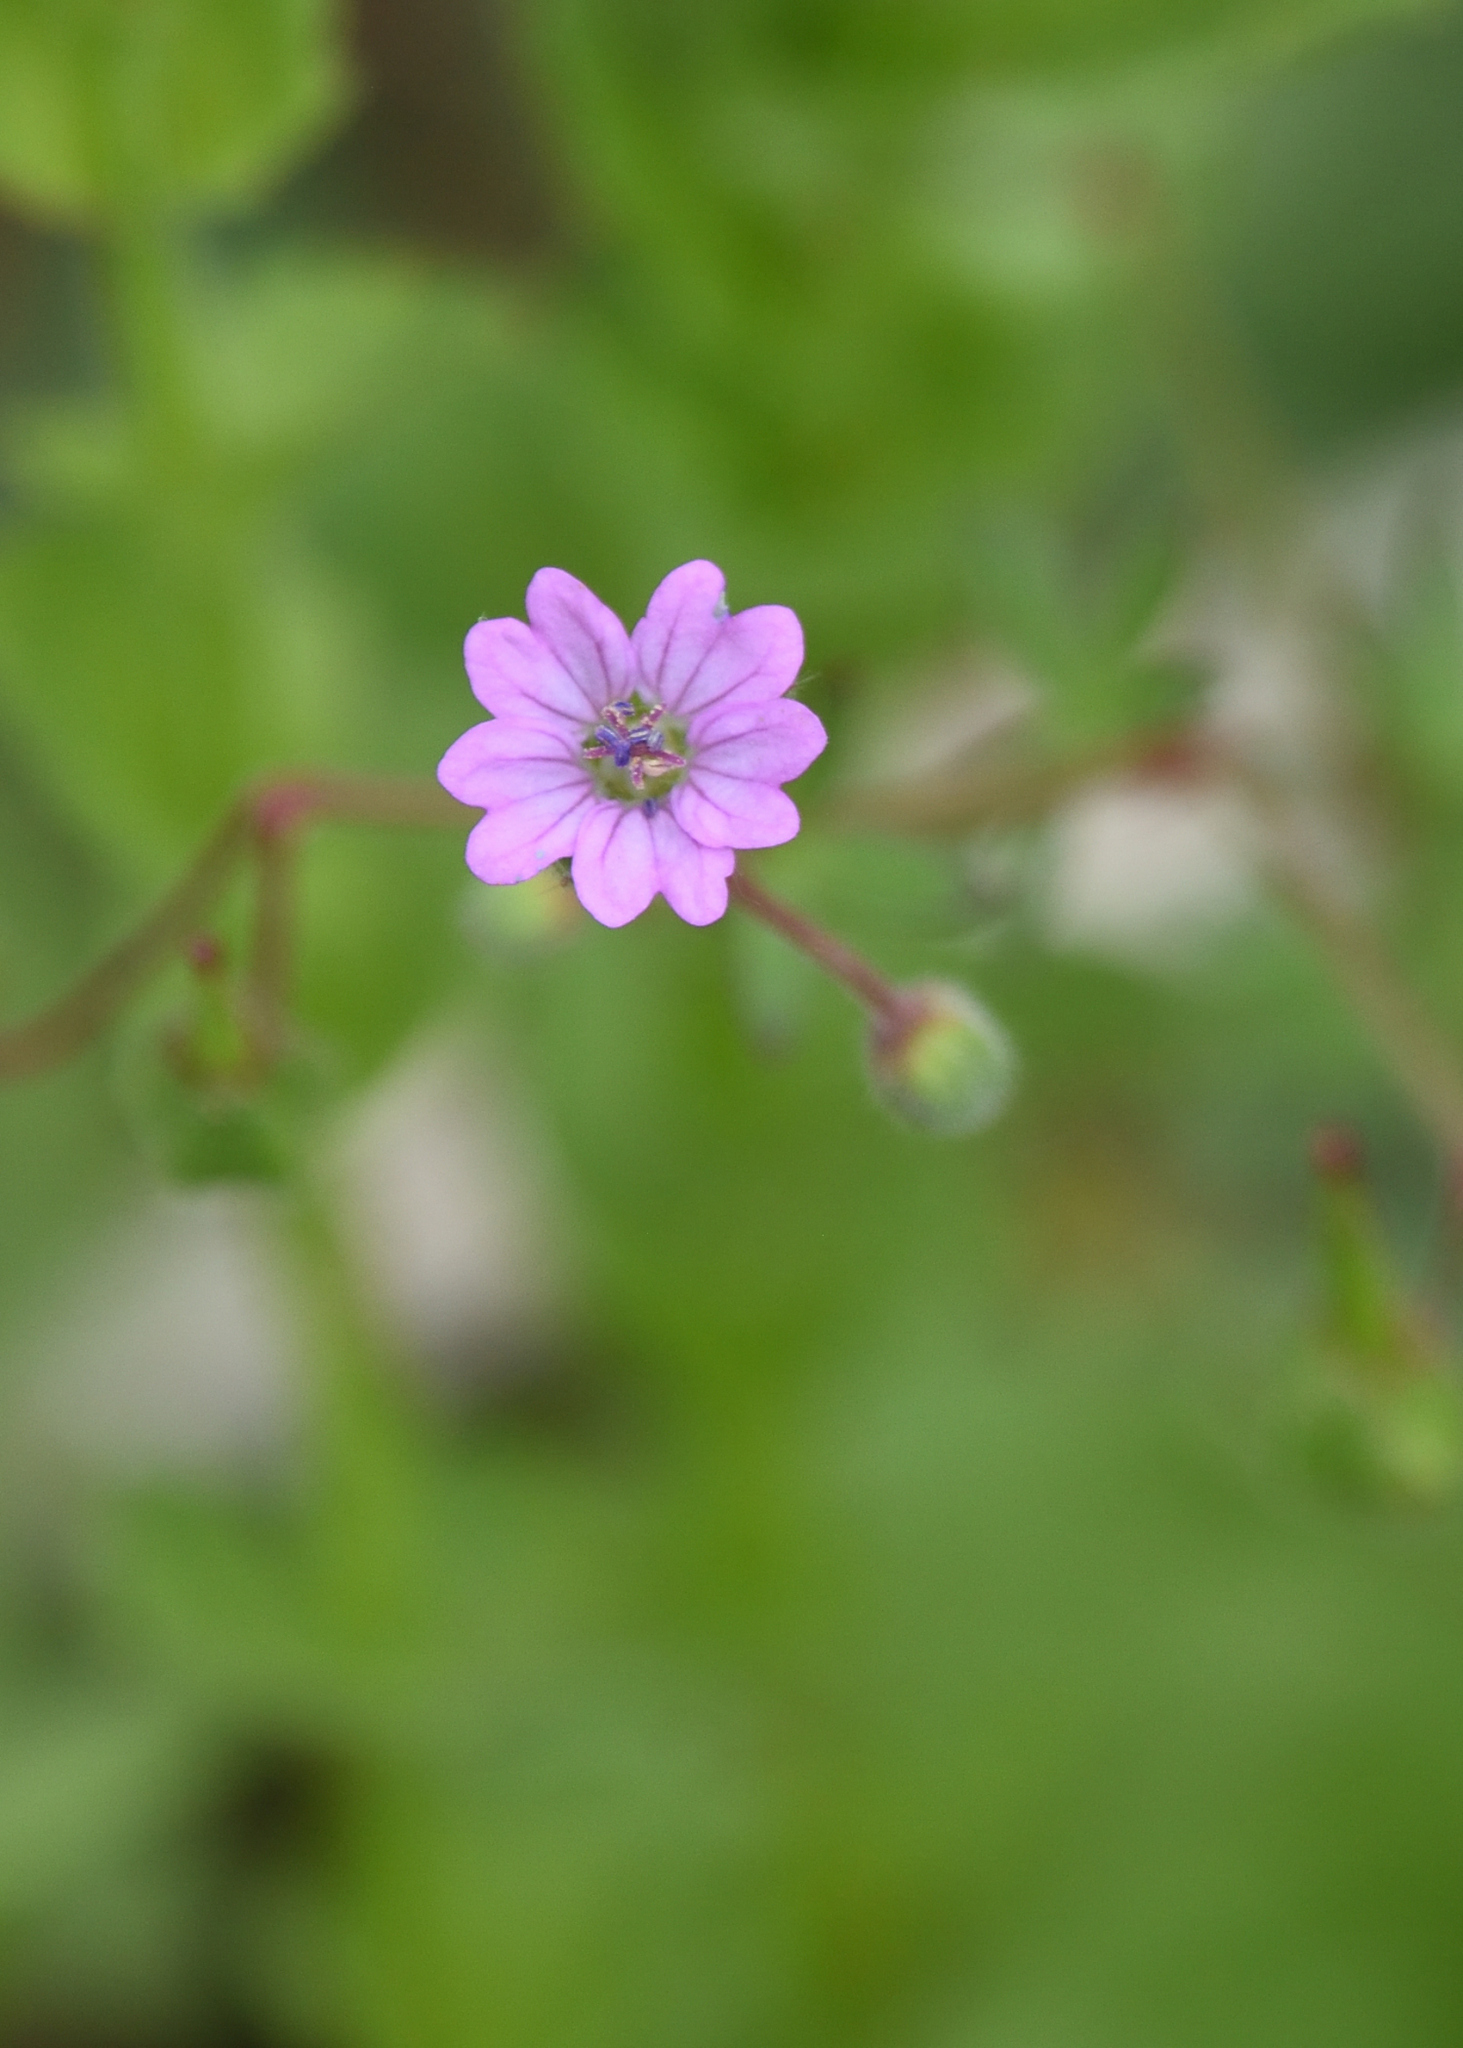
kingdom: Plantae
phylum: Tracheophyta
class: Magnoliopsida
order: Geraniales
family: Geraniaceae
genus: Geranium
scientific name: Geranium molle
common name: Dove's-foot crane's-bill
